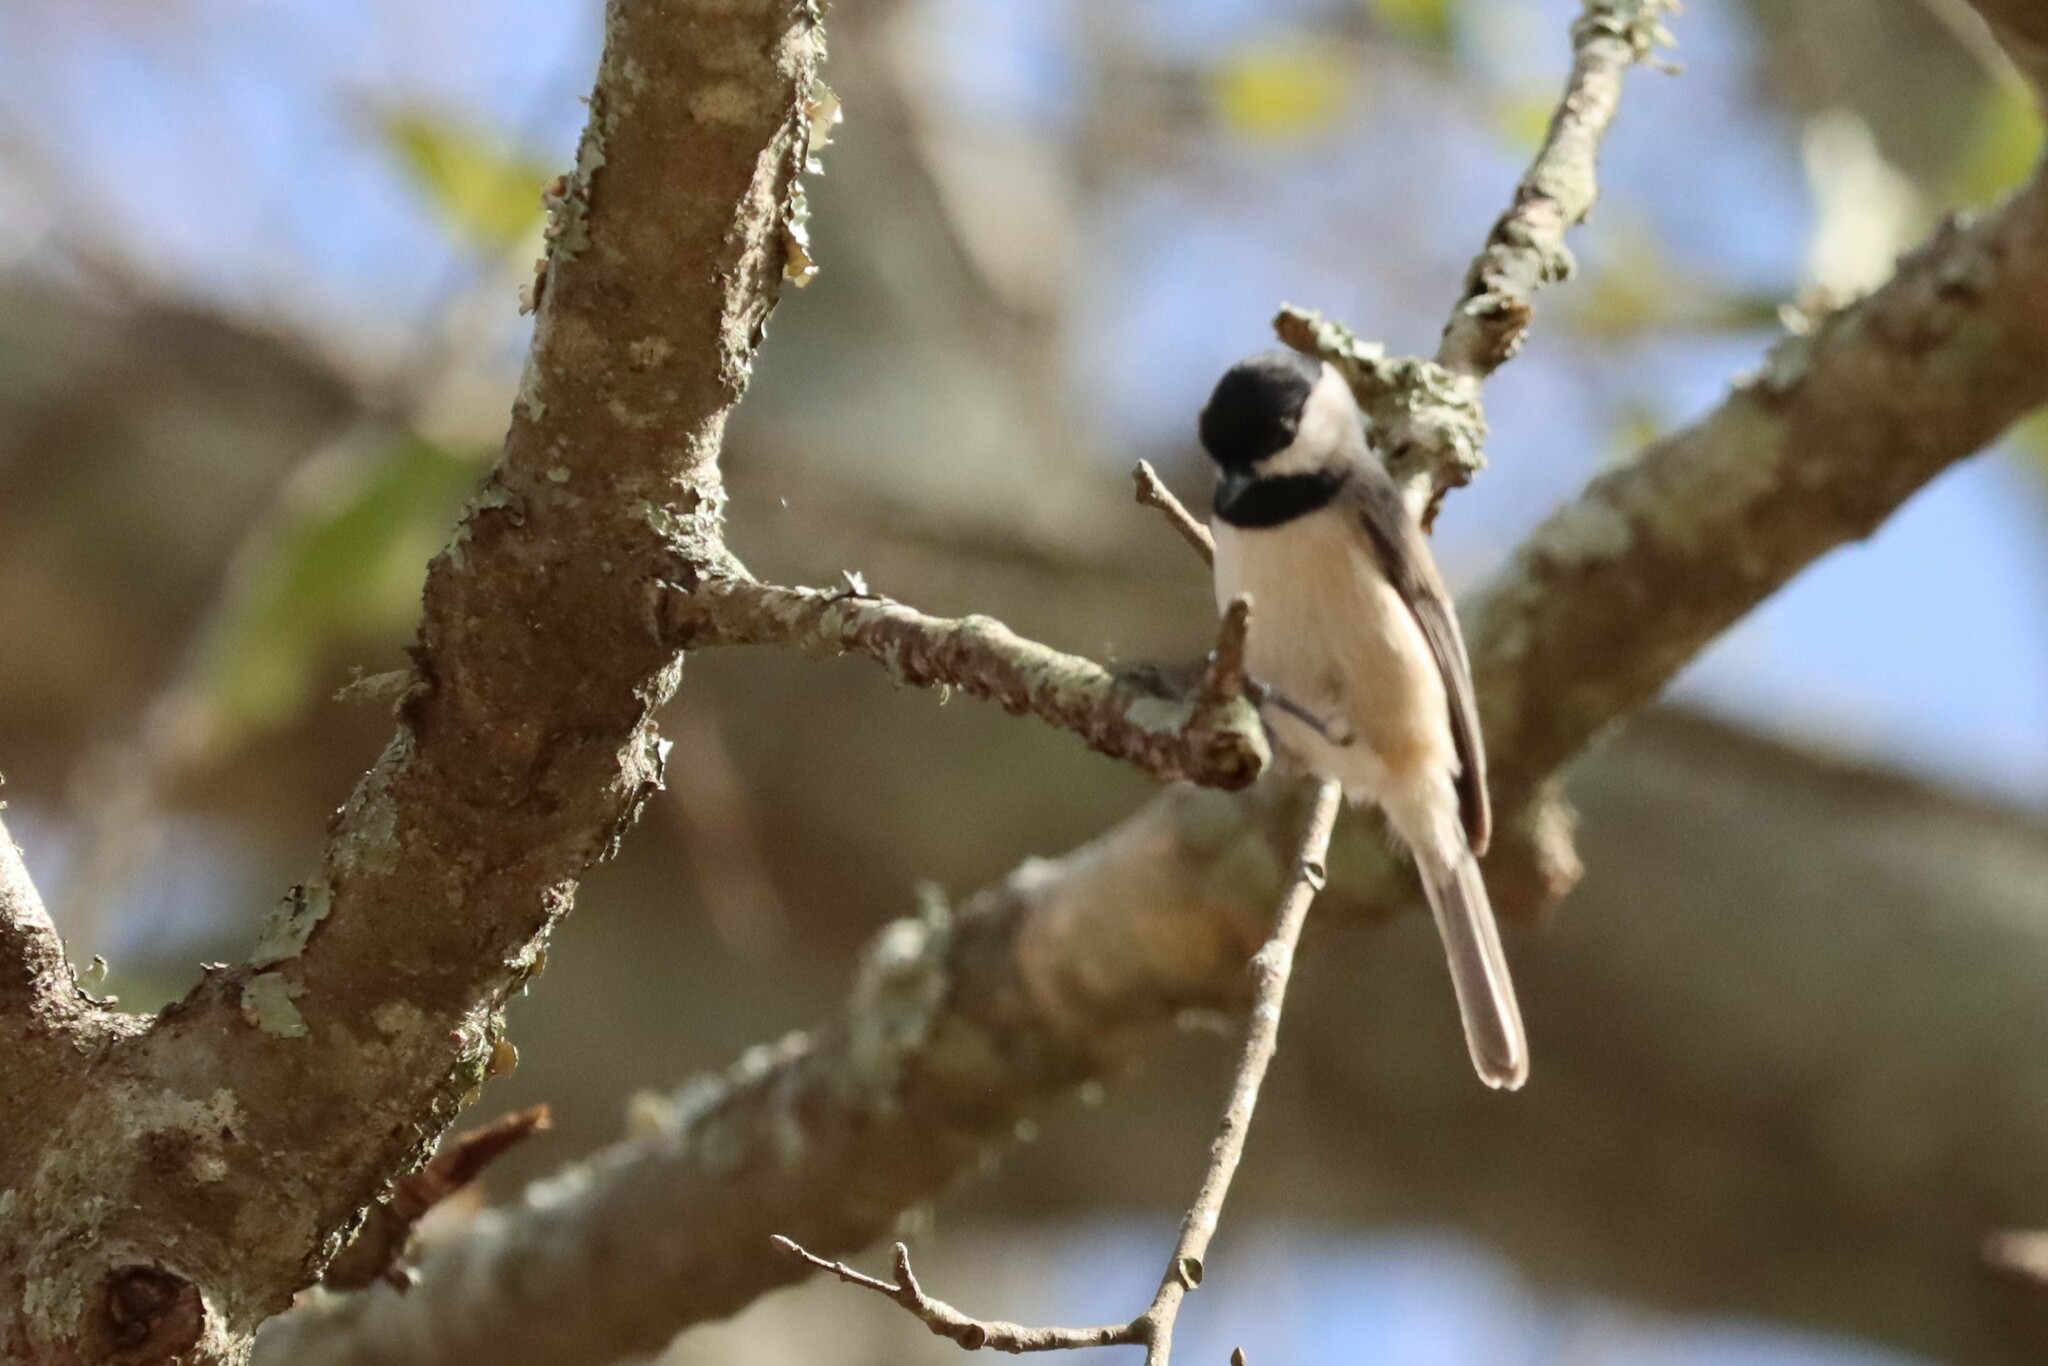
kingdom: Animalia
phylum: Chordata
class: Aves
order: Passeriformes
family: Paridae
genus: Poecile
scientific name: Poecile carolinensis
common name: Carolina chickadee
